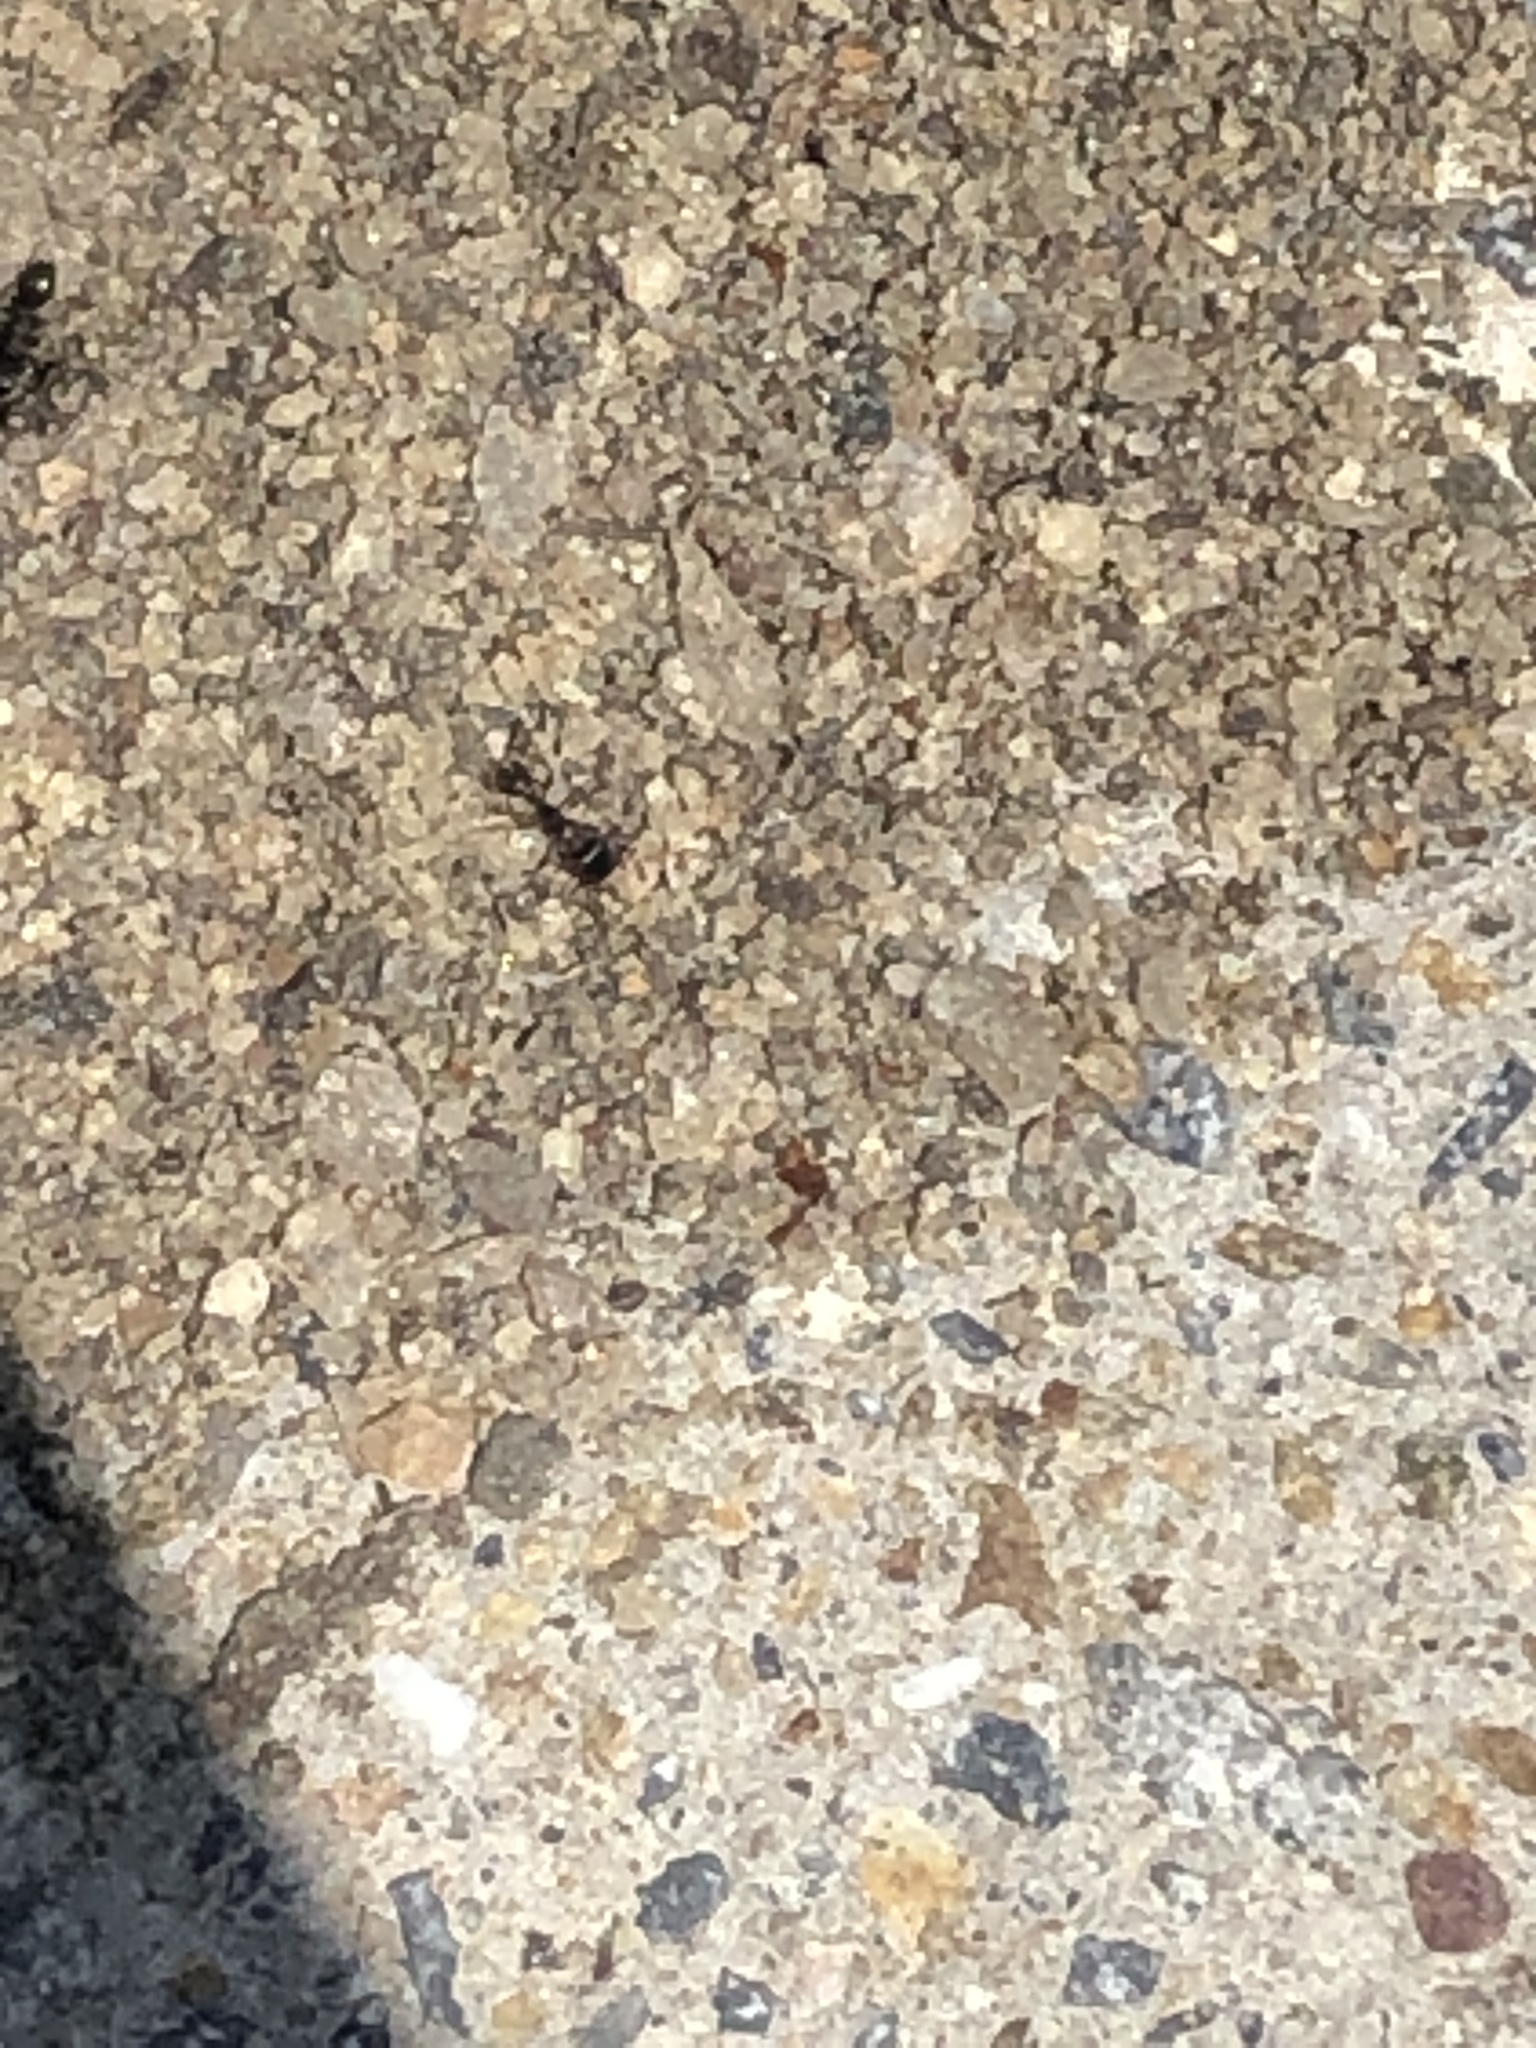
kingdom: Animalia
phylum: Arthropoda
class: Insecta
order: Hymenoptera
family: Formicidae
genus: Tetramorium
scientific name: Tetramorium immigrans
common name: Pavement ant
